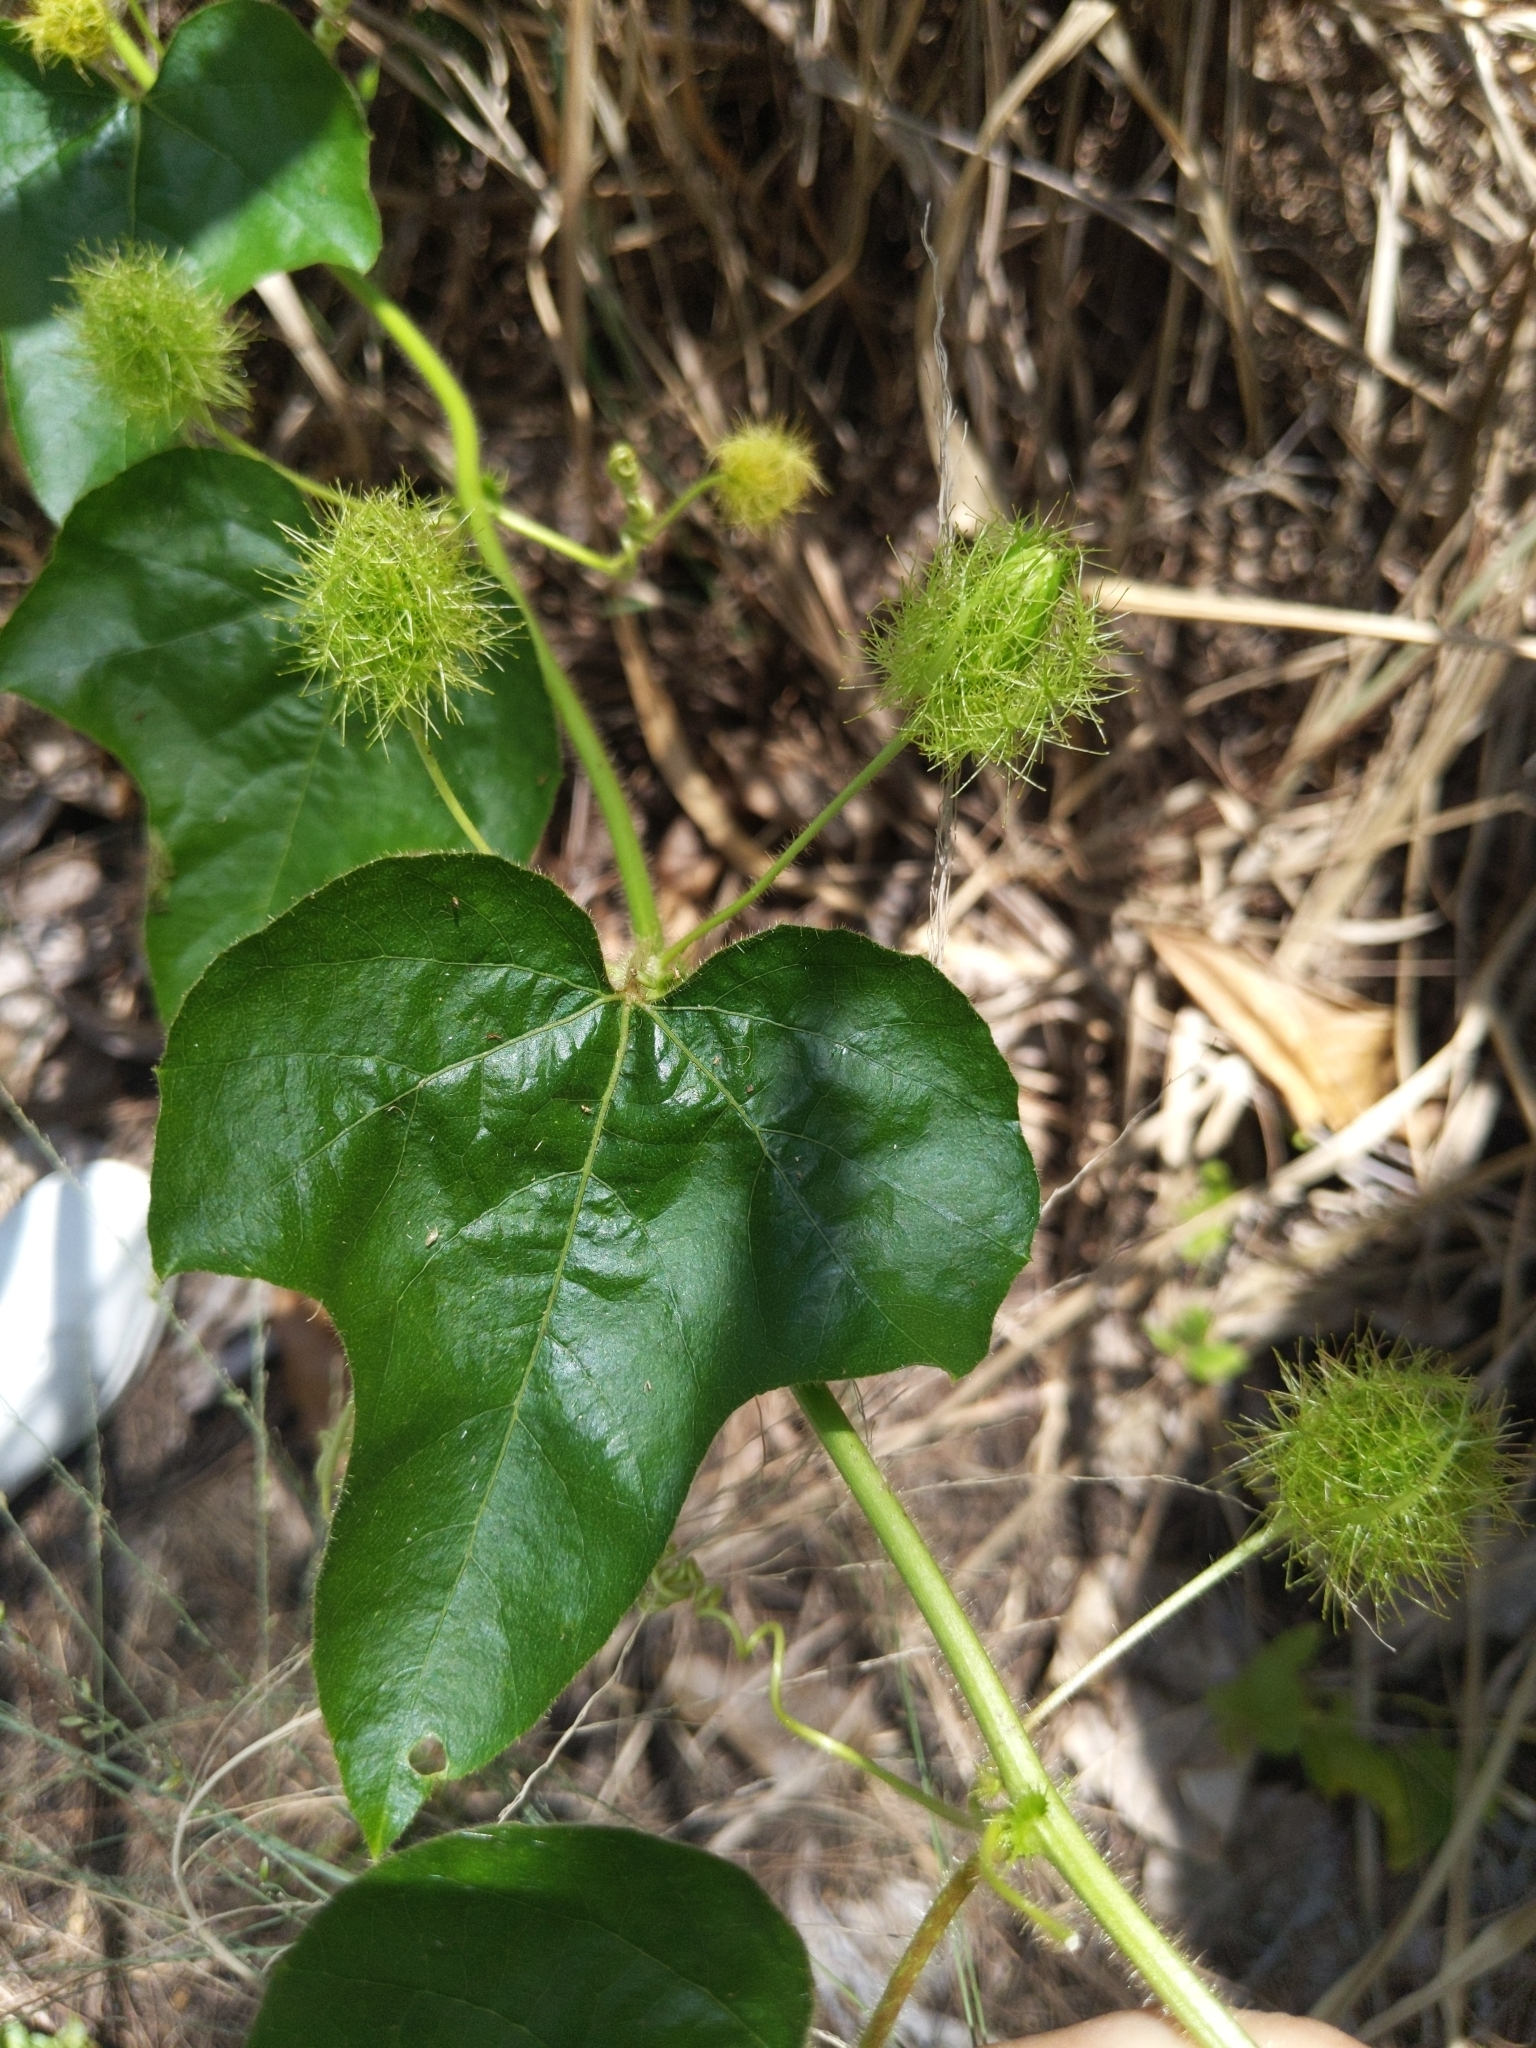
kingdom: Plantae
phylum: Tracheophyta
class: Magnoliopsida
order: Malpighiales
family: Passifloraceae
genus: Passiflora
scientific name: Passiflora foetida
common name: Fetid passionflower
